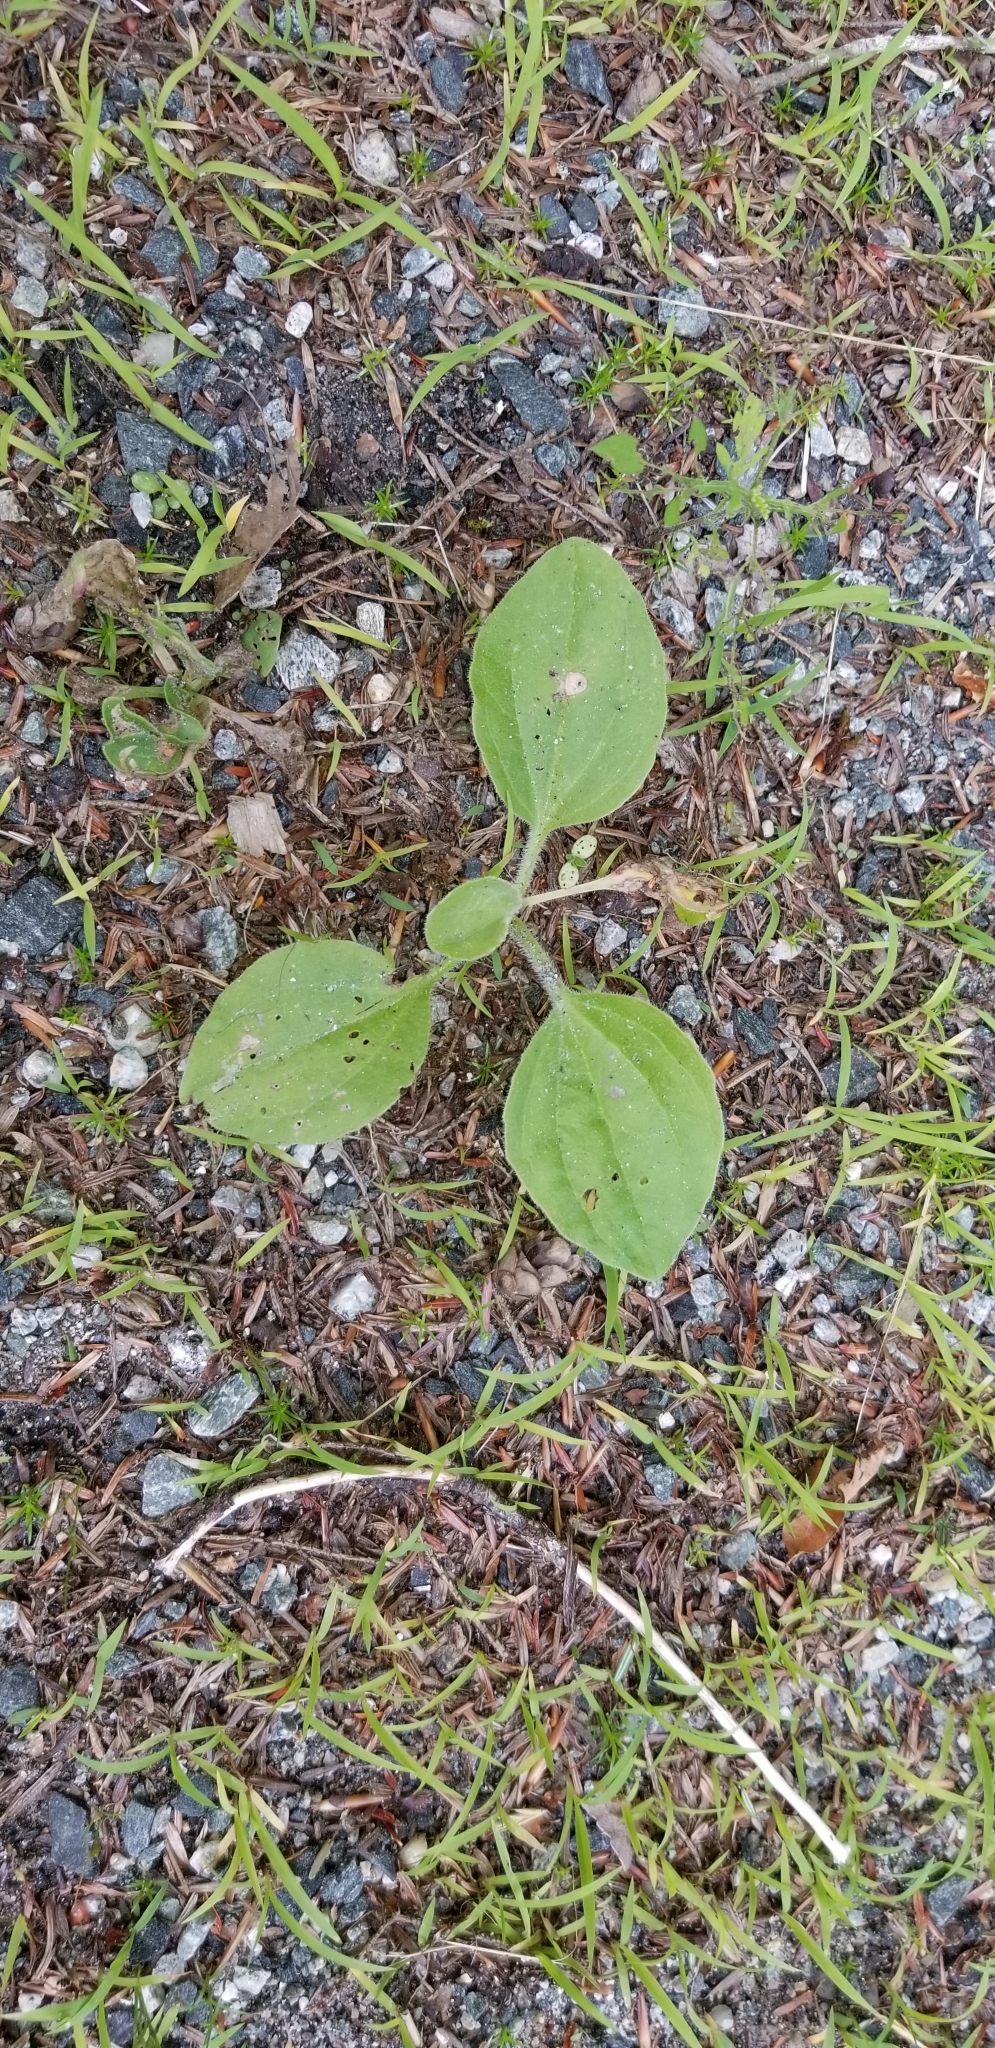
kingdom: Plantae
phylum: Tracheophyta
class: Magnoliopsida
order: Lamiales
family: Plantaginaceae
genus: Plantago
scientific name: Plantago major
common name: Common plantain
